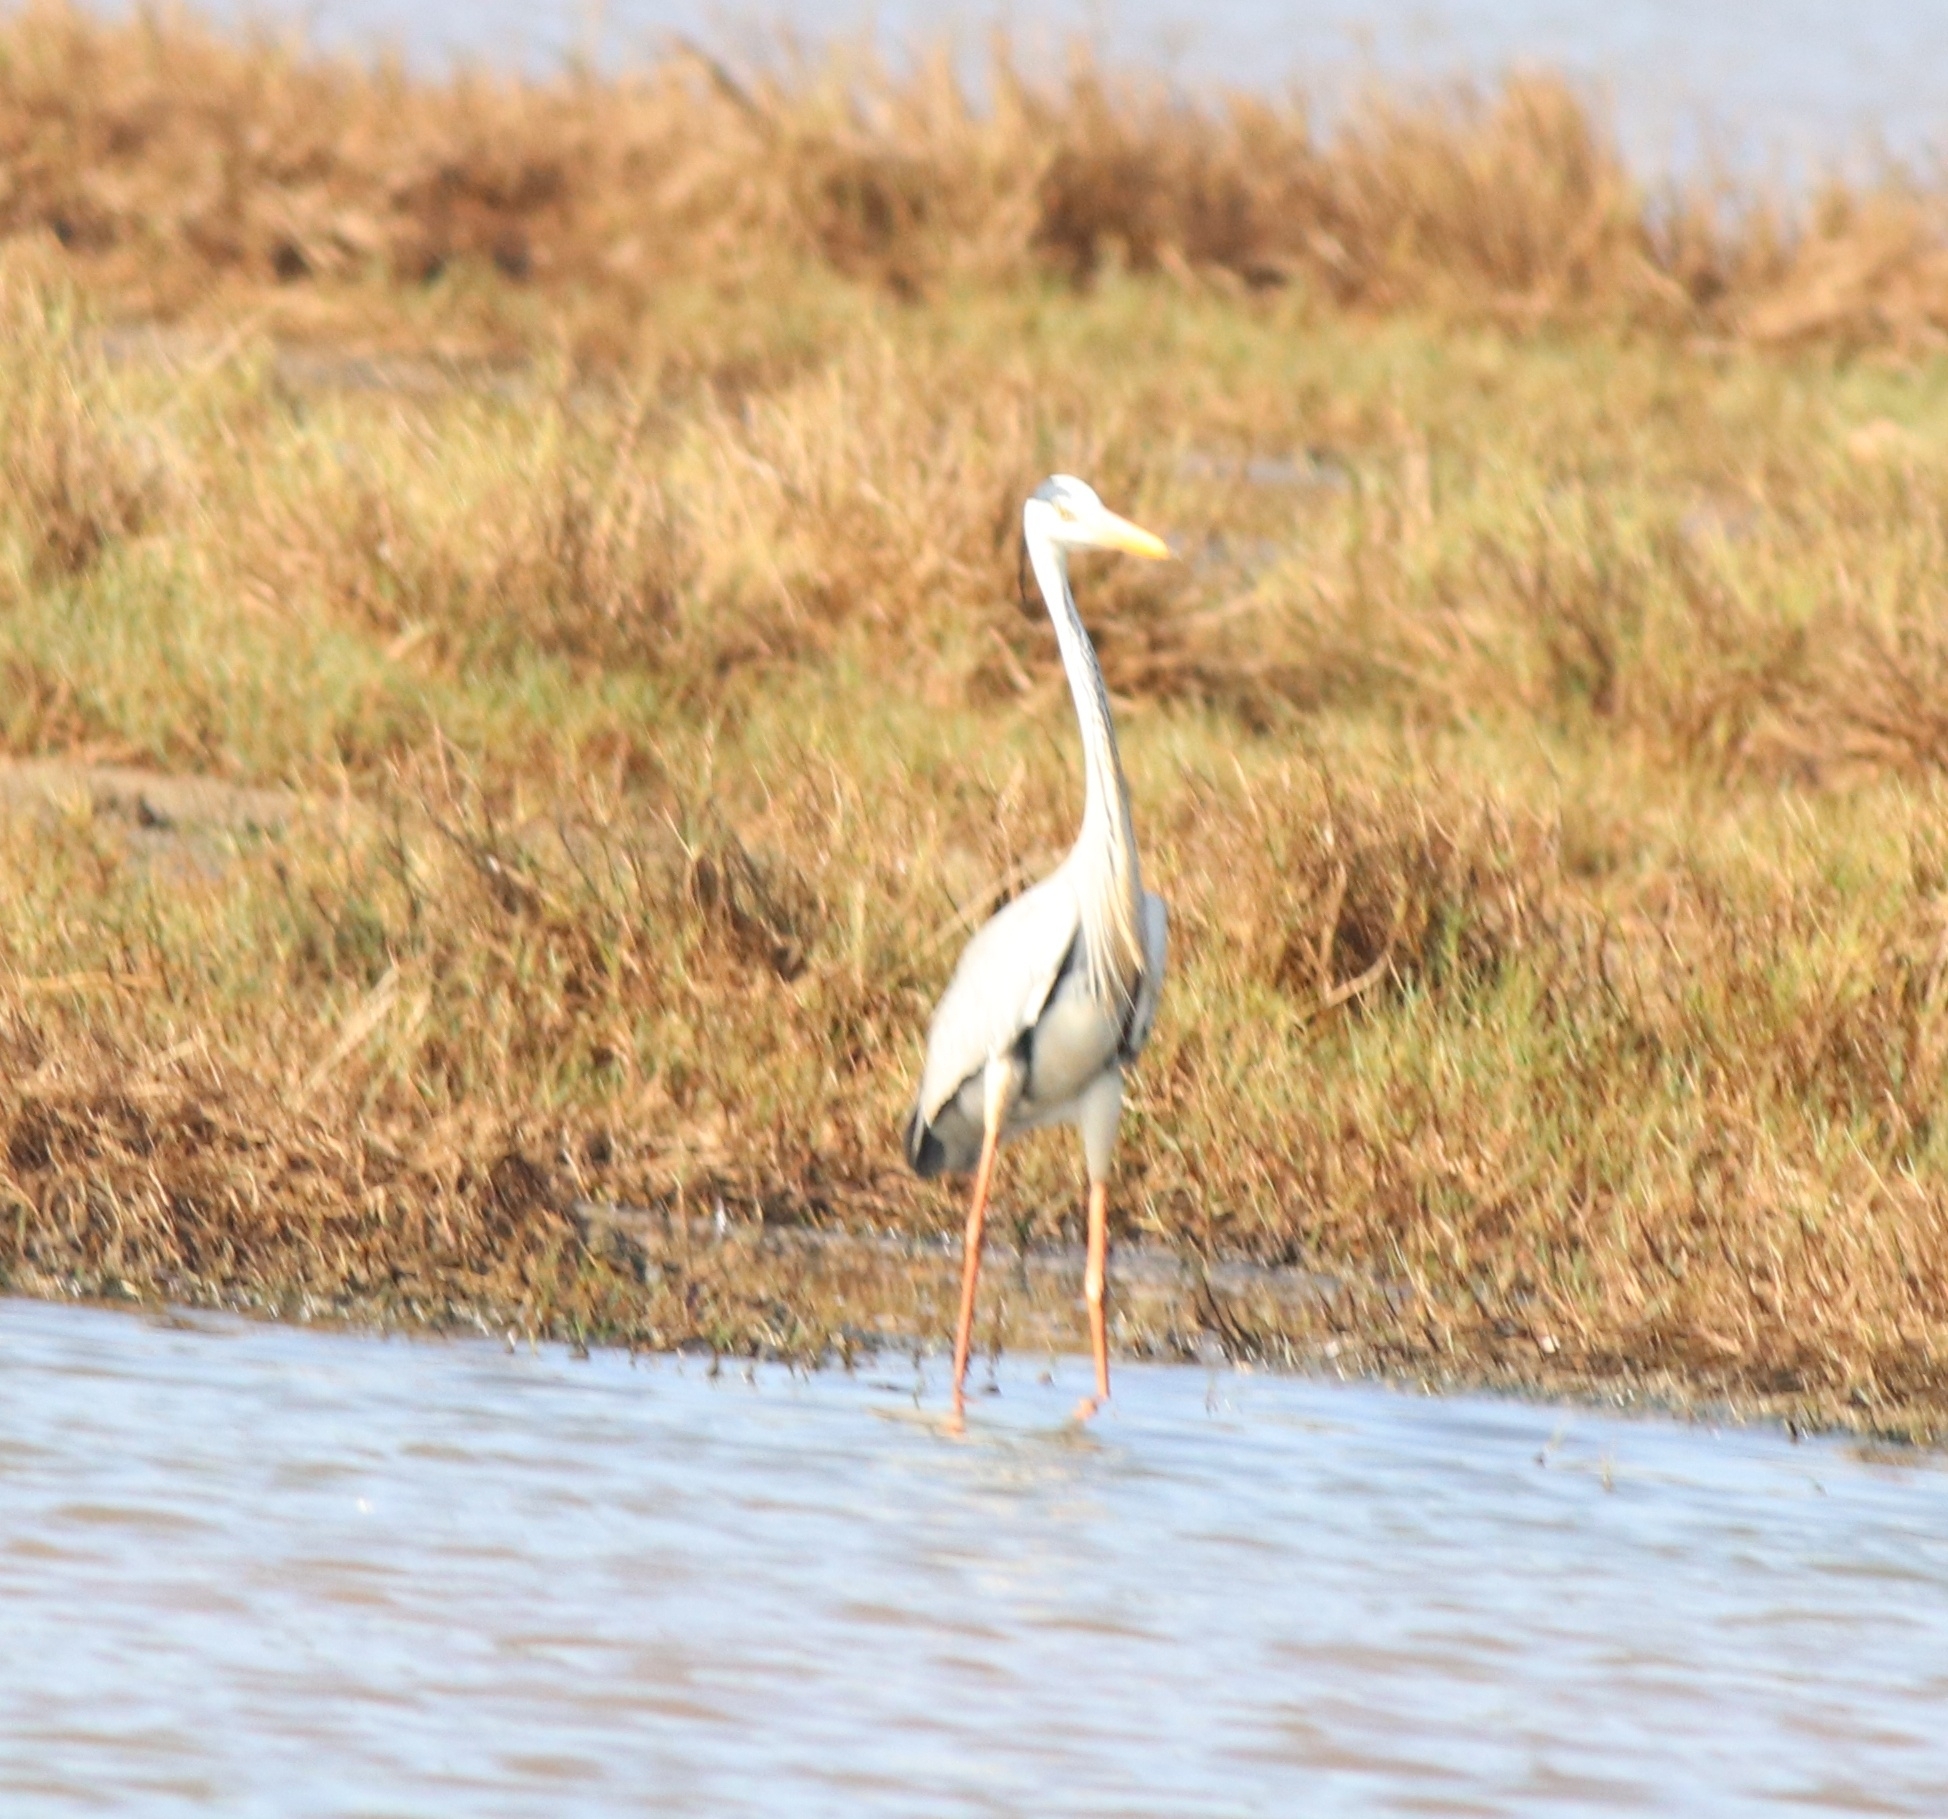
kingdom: Animalia
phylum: Chordata
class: Aves
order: Pelecaniformes
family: Ardeidae
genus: Ardea
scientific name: Ardea cinerea
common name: Grey heron
